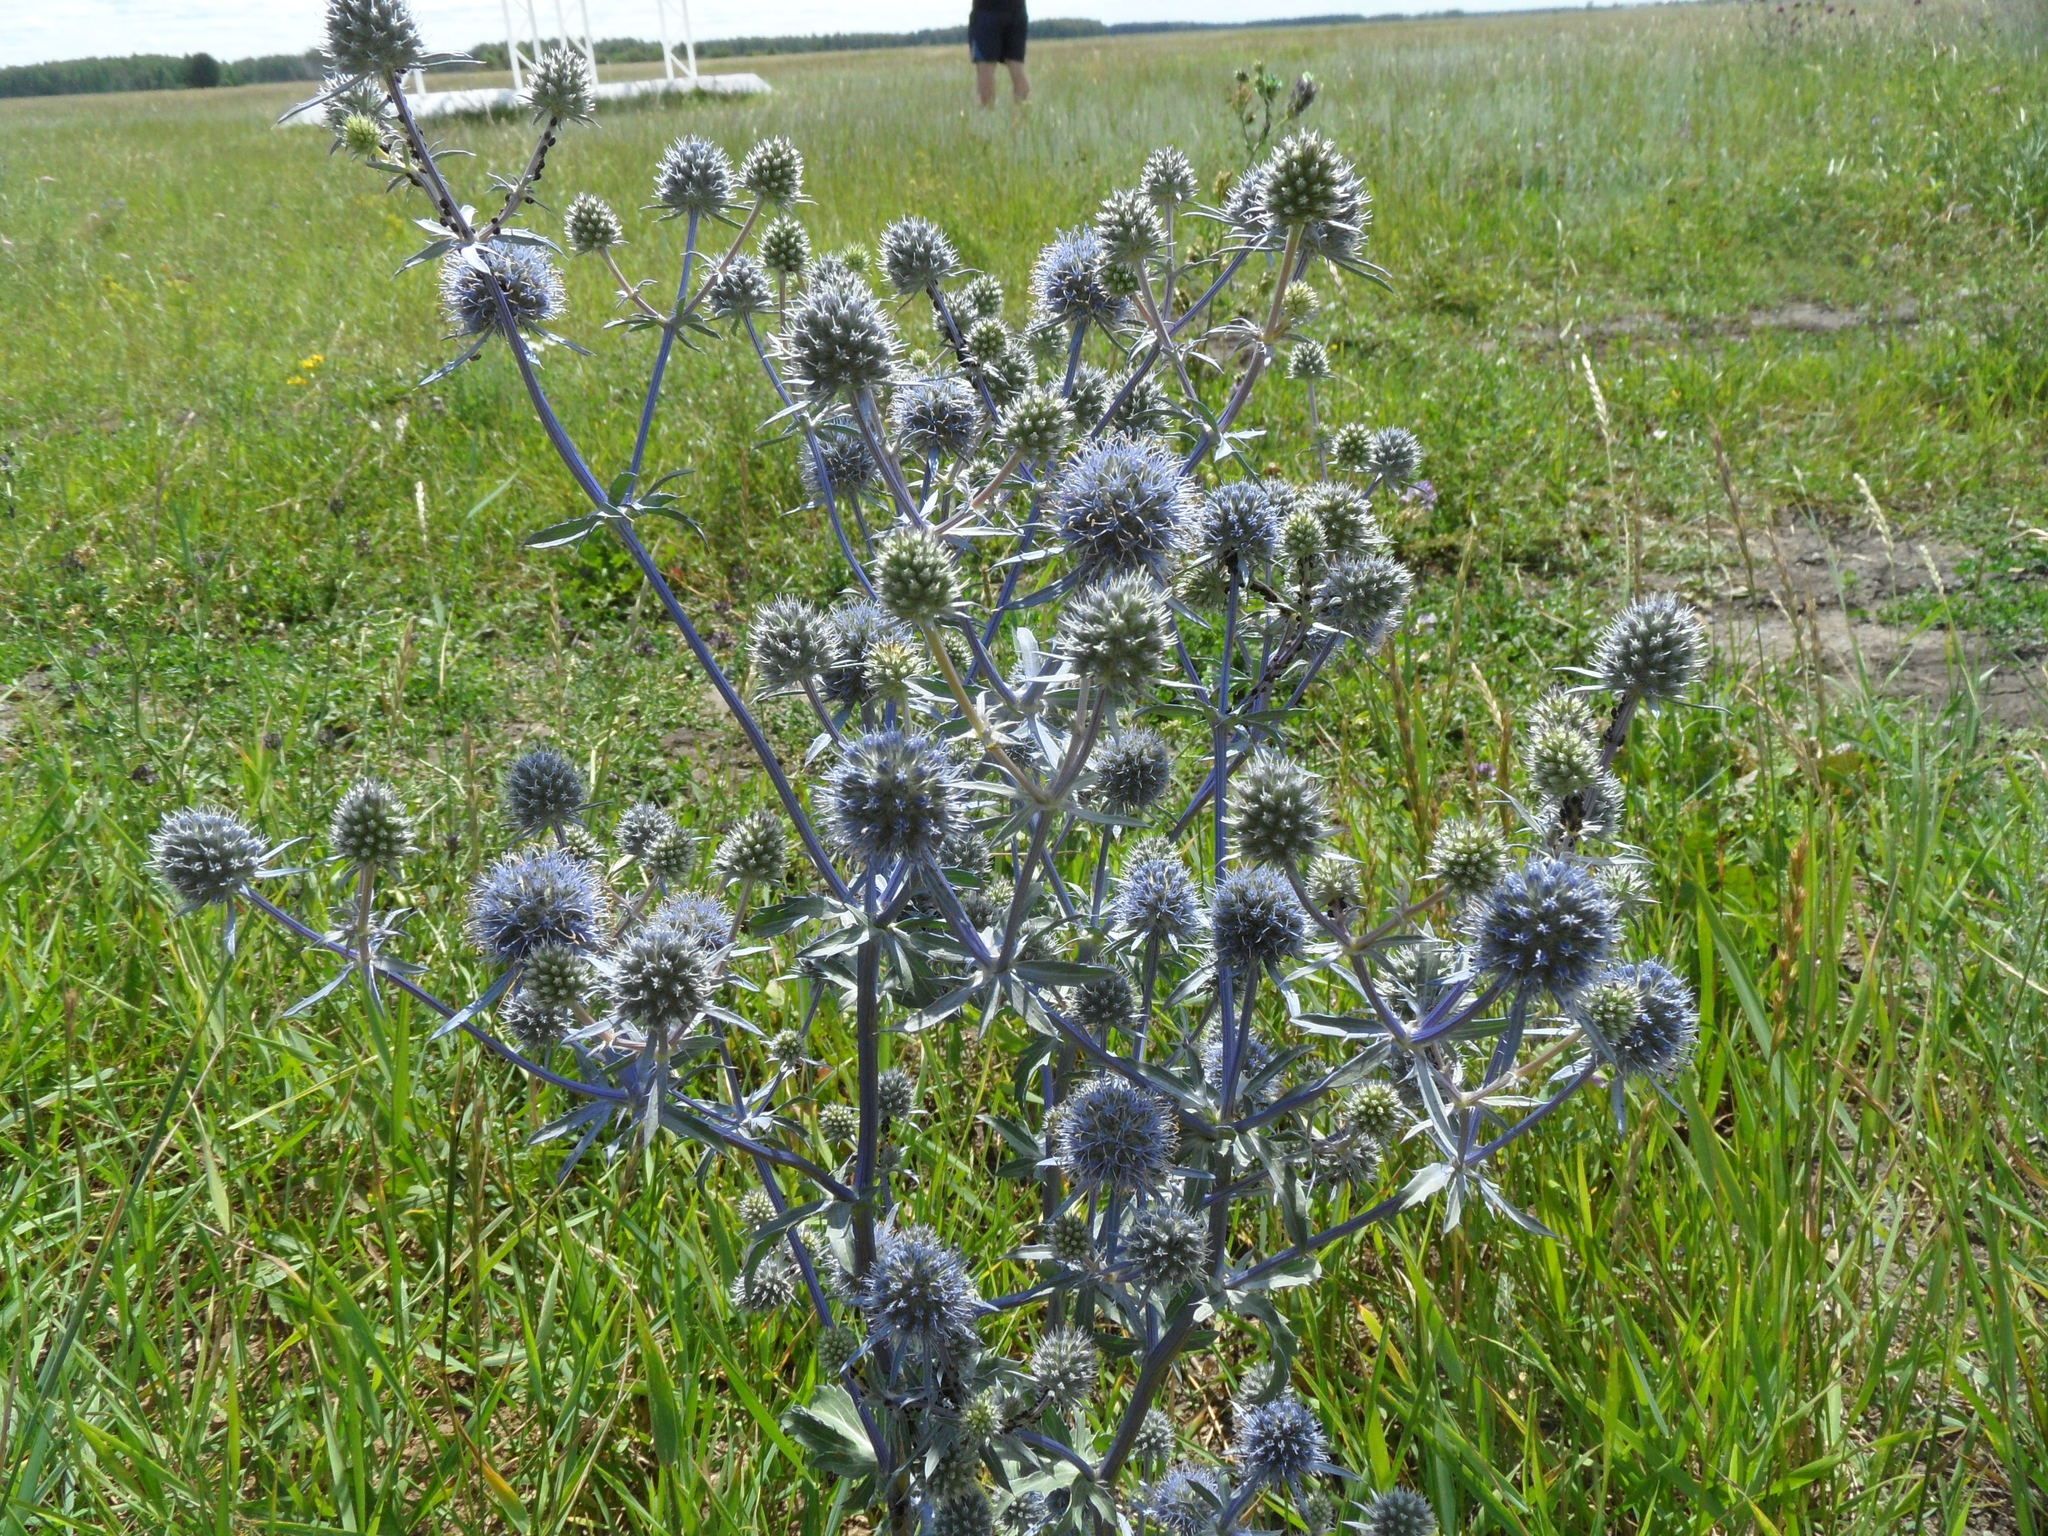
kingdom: Plantae
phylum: Tracheophyta
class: Magnoliopsida
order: Apiales
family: Apiaceae
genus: Eryngium
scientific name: Eryngium planum
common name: Blue eryngo
